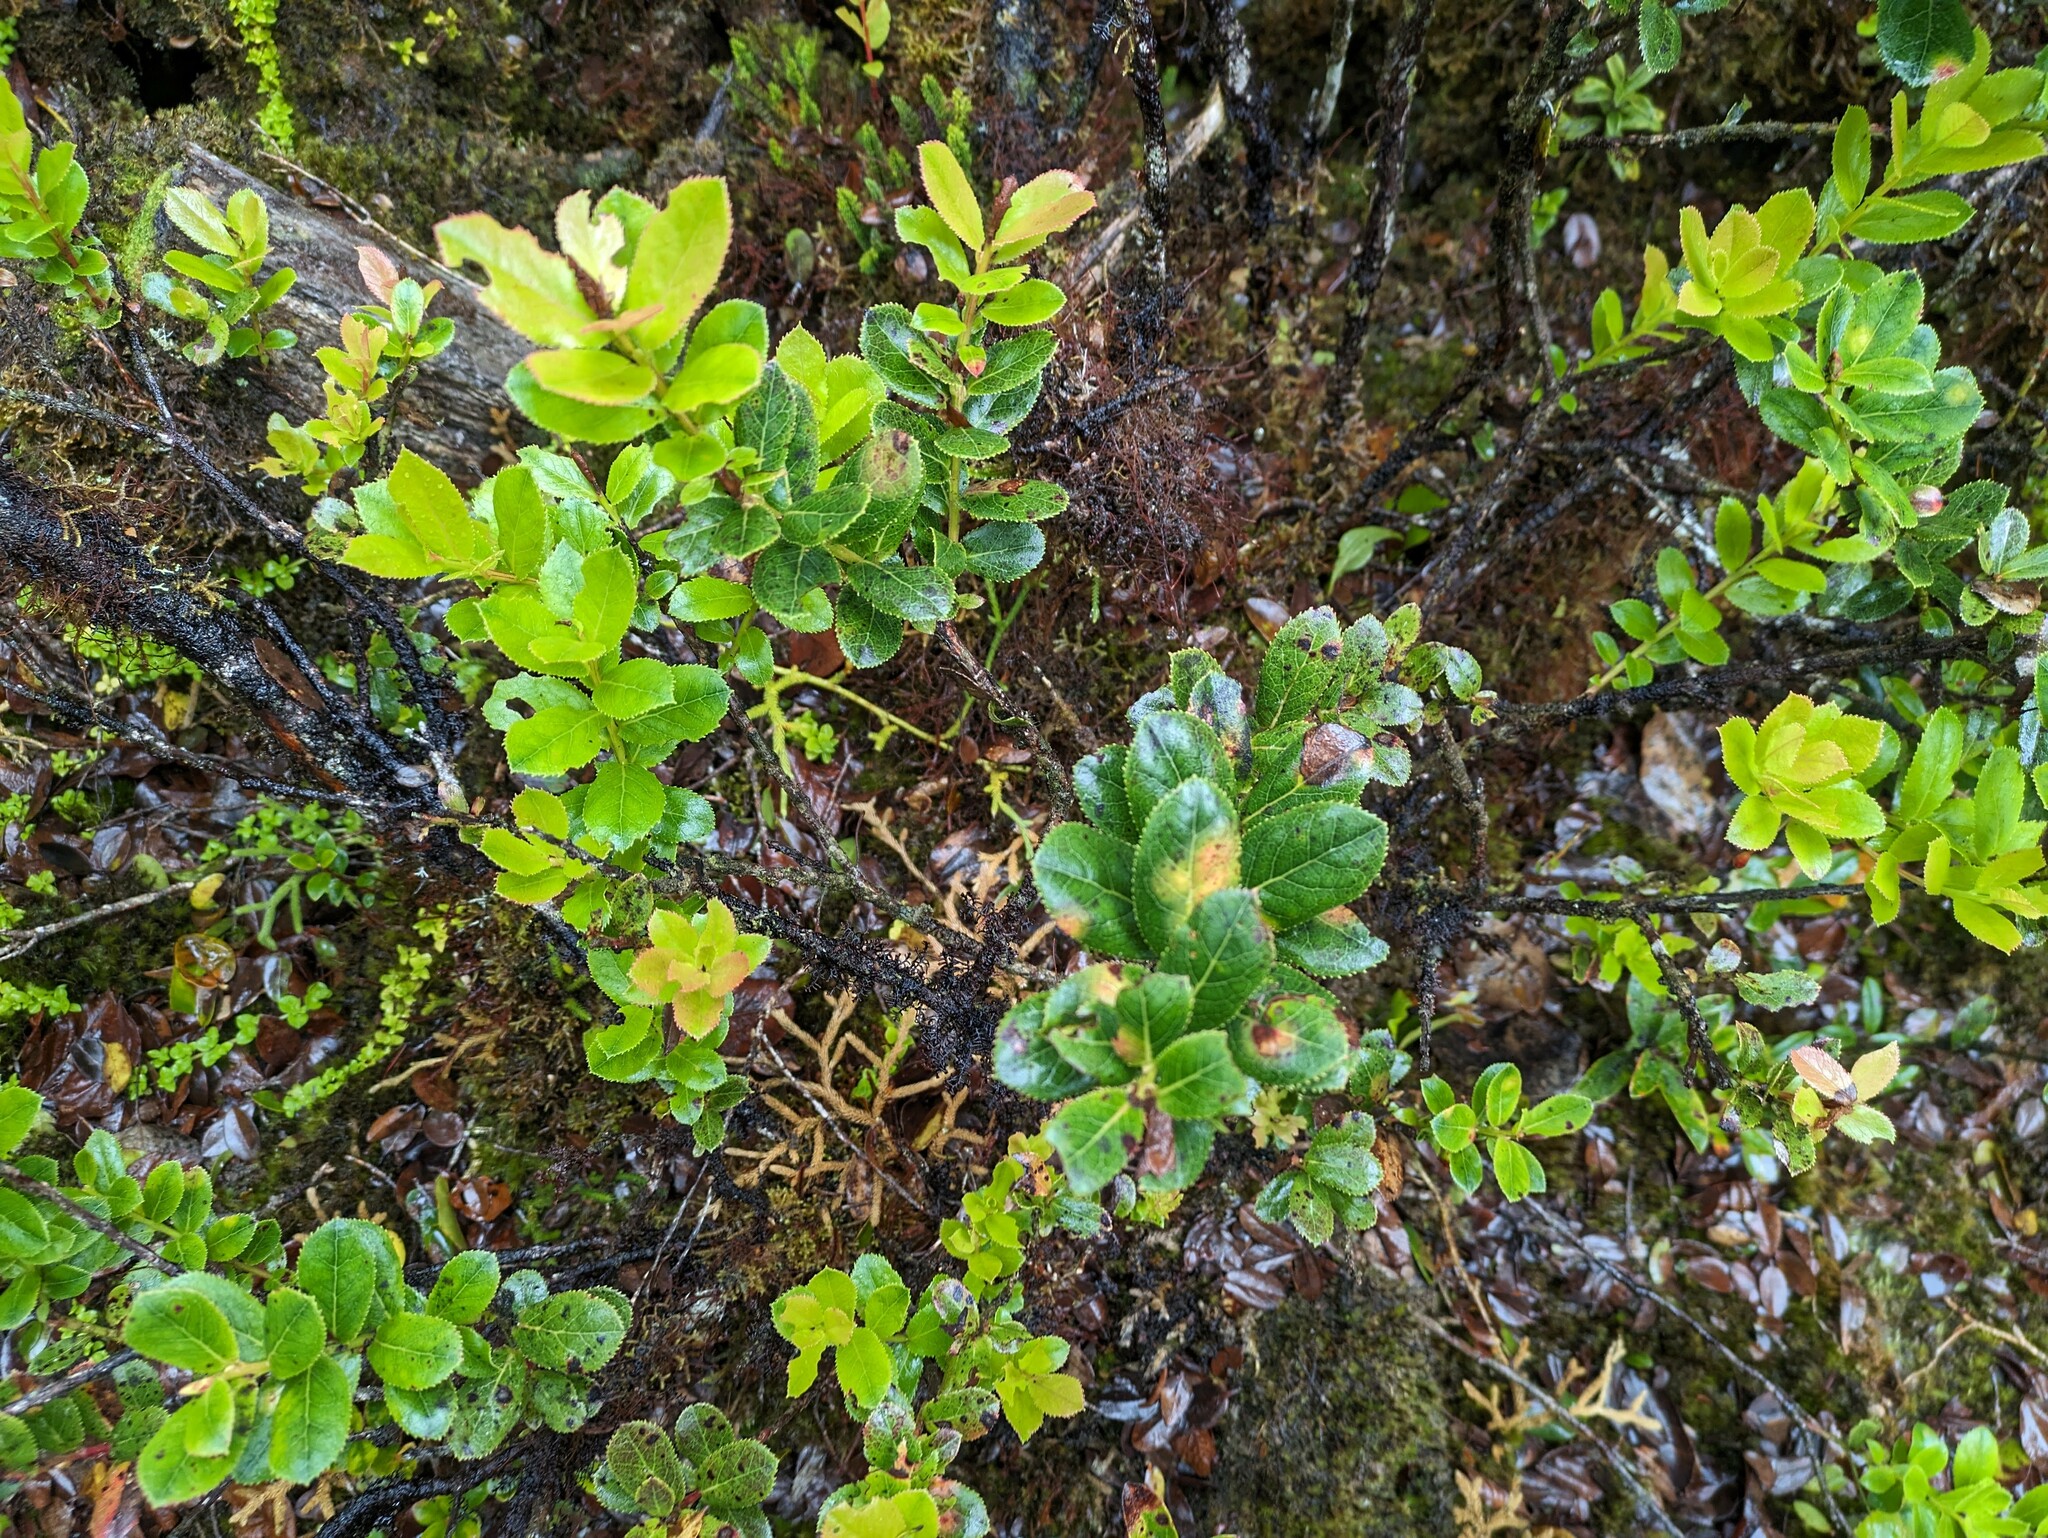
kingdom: Plantae
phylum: Tracheophyta
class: Magnoliopsida
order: Ericales
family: Ericaceae
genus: Vaccinium
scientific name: Vaccinium dentatum
